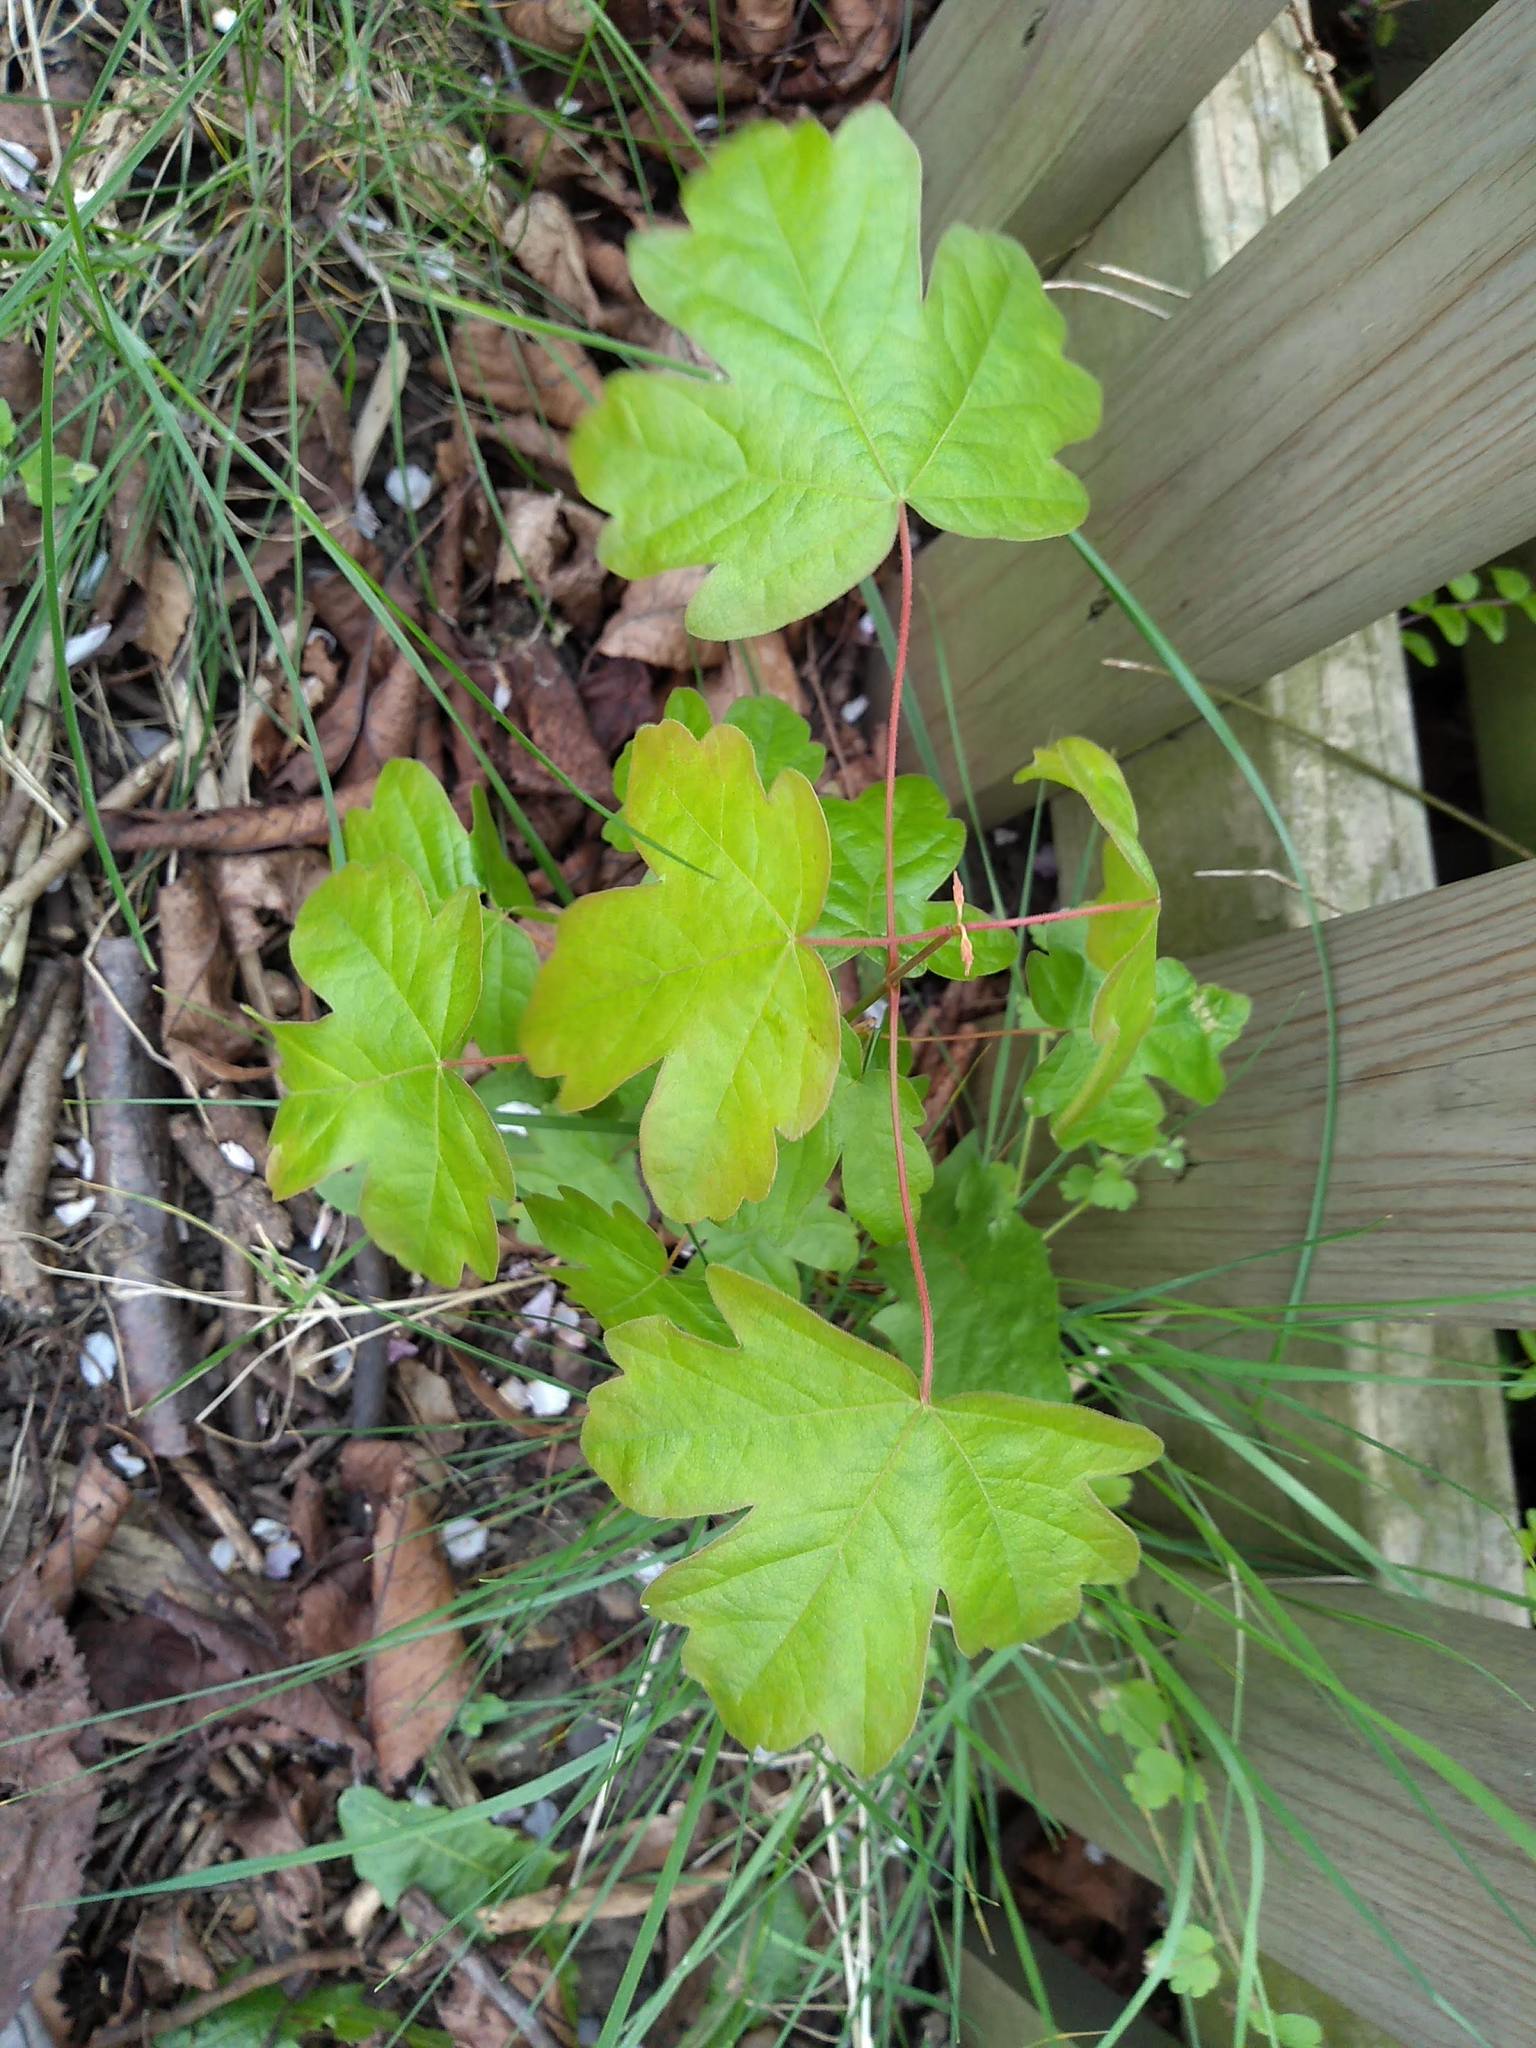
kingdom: Plantae
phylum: Tracheophyta
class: Magnoliopsida
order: Sapindales
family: Sapindaceae
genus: Acer
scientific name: Acer campestre
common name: Field maple
